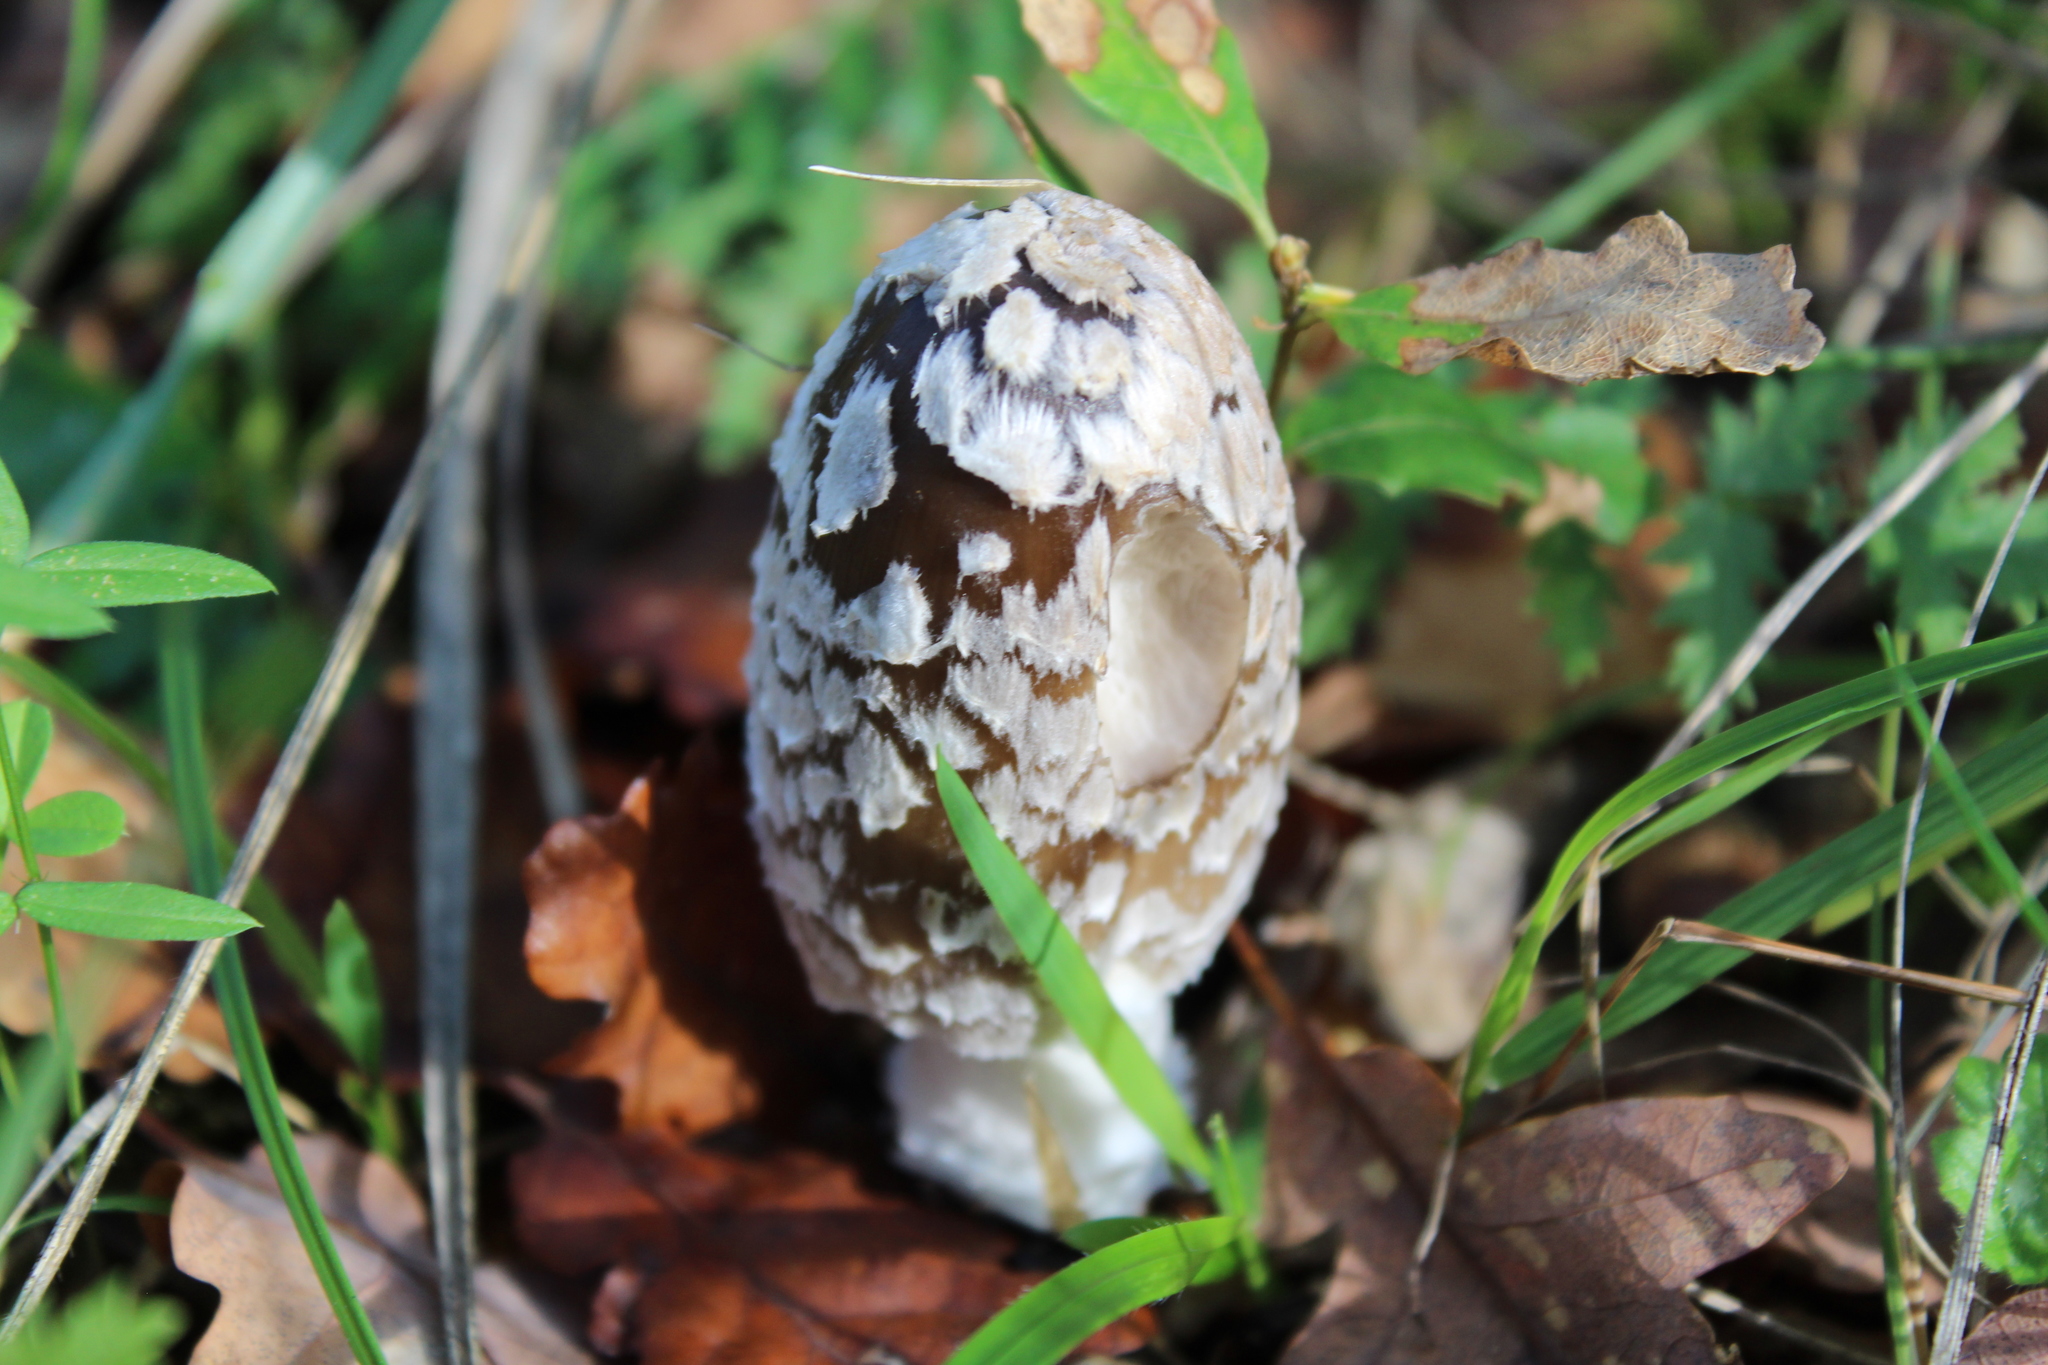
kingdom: Fungi
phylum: Basidiomycota
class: Agaricomycetes
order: Agaricales
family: Psathyrellaceae
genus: Coprinopsis
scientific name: Coprinopsis picacea
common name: Magpie inkcap
